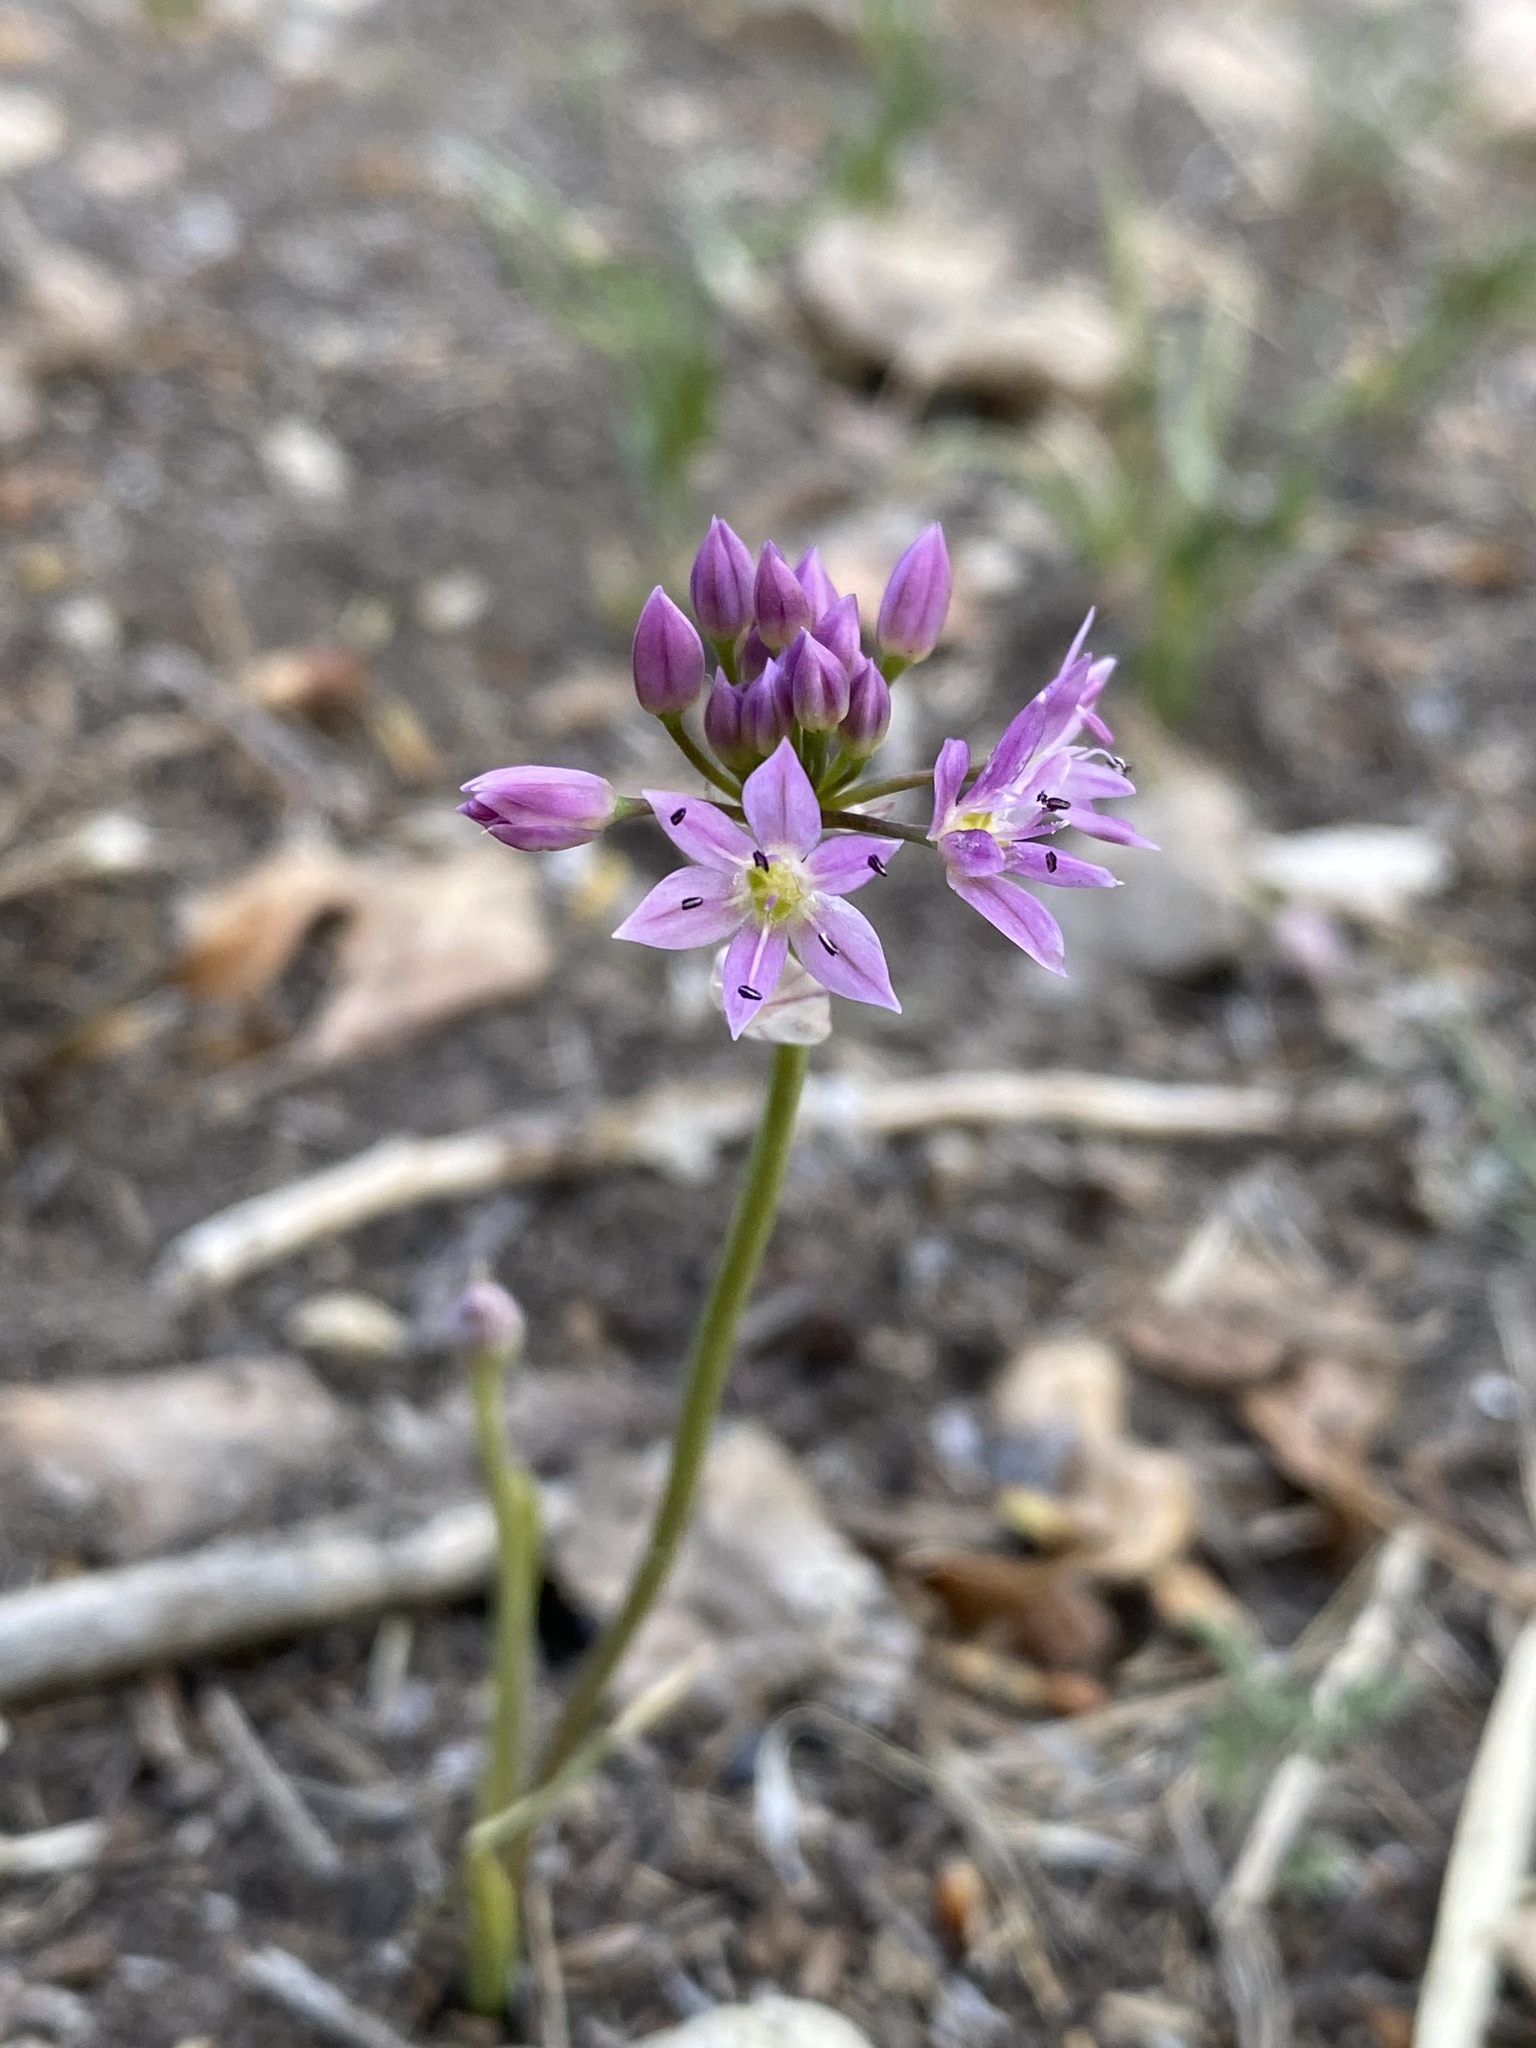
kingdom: Plantae
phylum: Tracheophyta
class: Liliopsida
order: Asparagales
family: Amaryllidaceae
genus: Allium
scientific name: Allium bisceptrum
